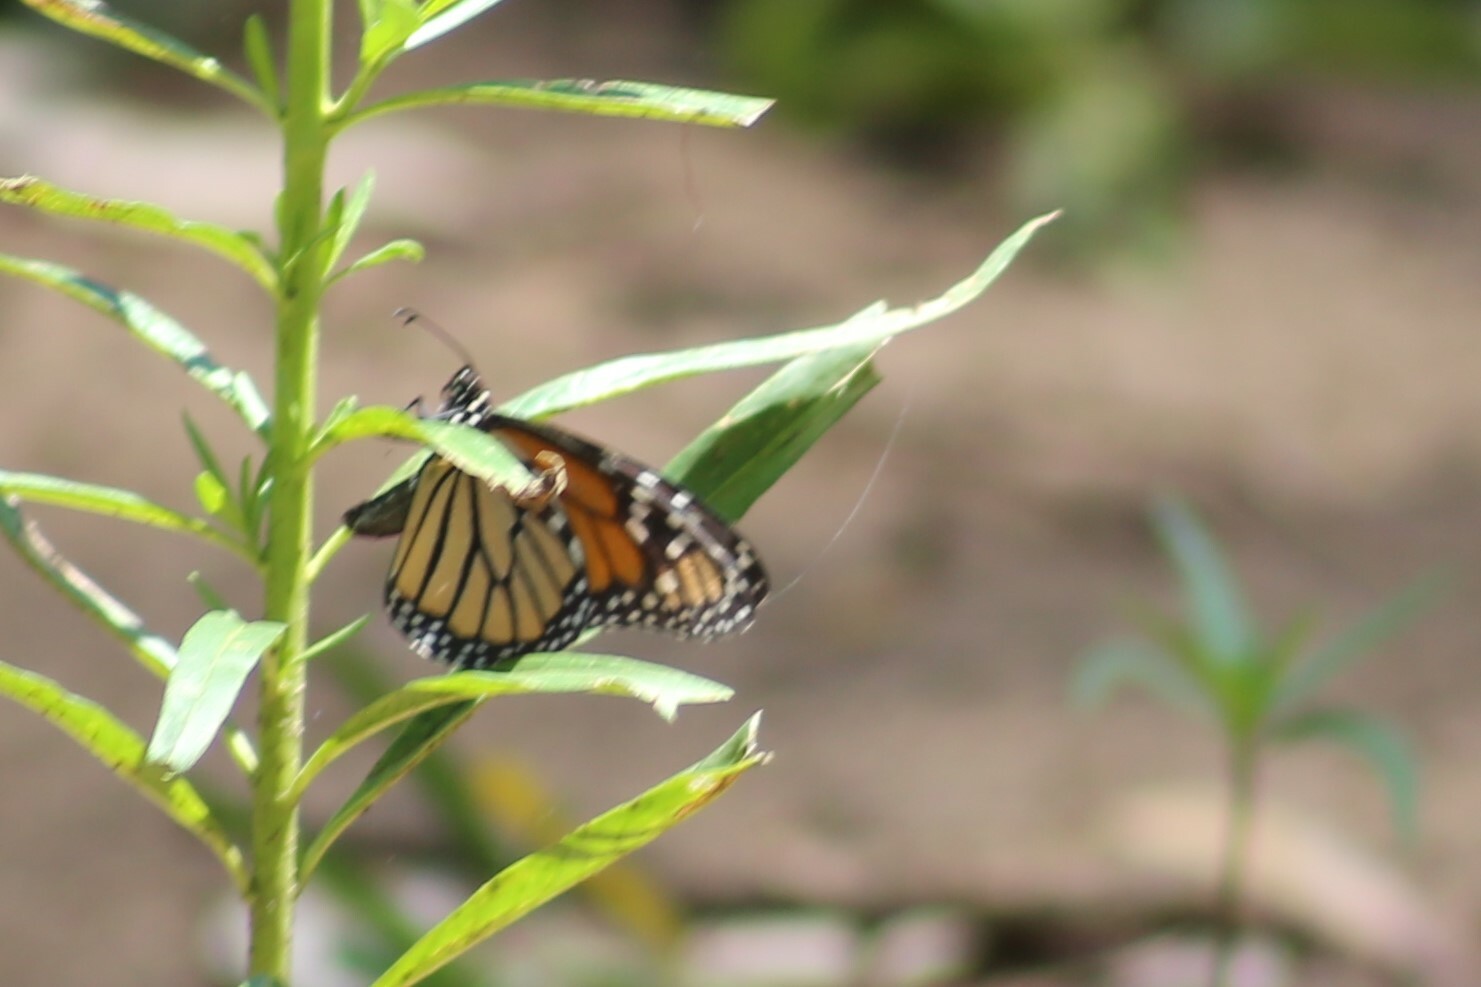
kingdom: Animalia
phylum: Arthropoda
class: Insecta
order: Lepidoptera
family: Nymphalidae
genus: Danaus
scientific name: Danaus plexippus
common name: Monarch
